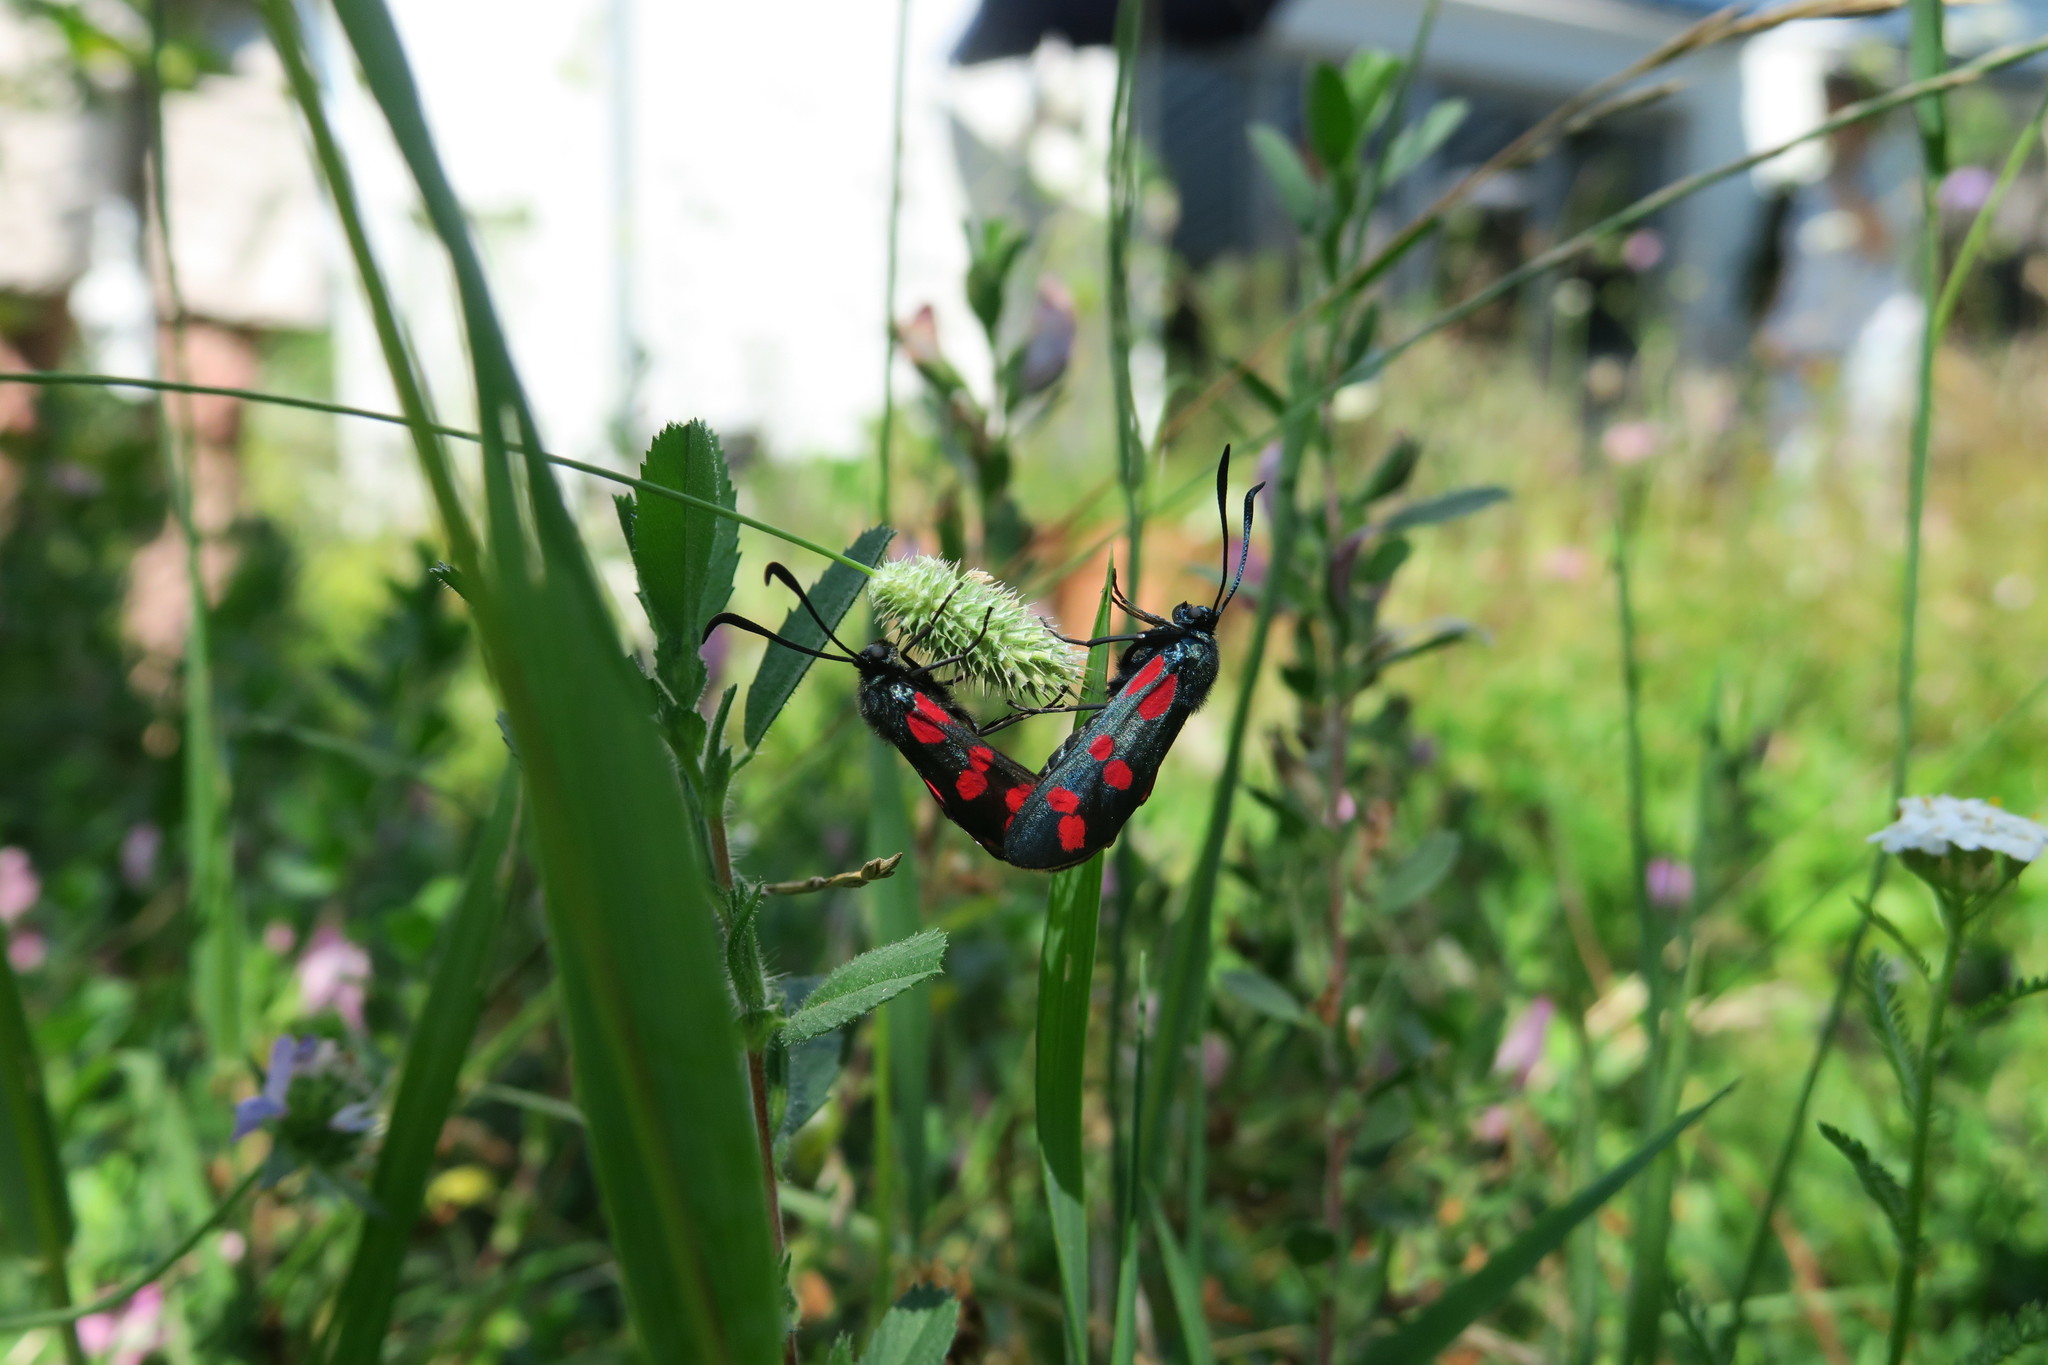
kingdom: Animalia
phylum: Arthropoda
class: Insecta
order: Lepidoptera
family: Zygaenidae
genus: Zygaena
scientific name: Zygaena filipendulae
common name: Six-spot burnet
